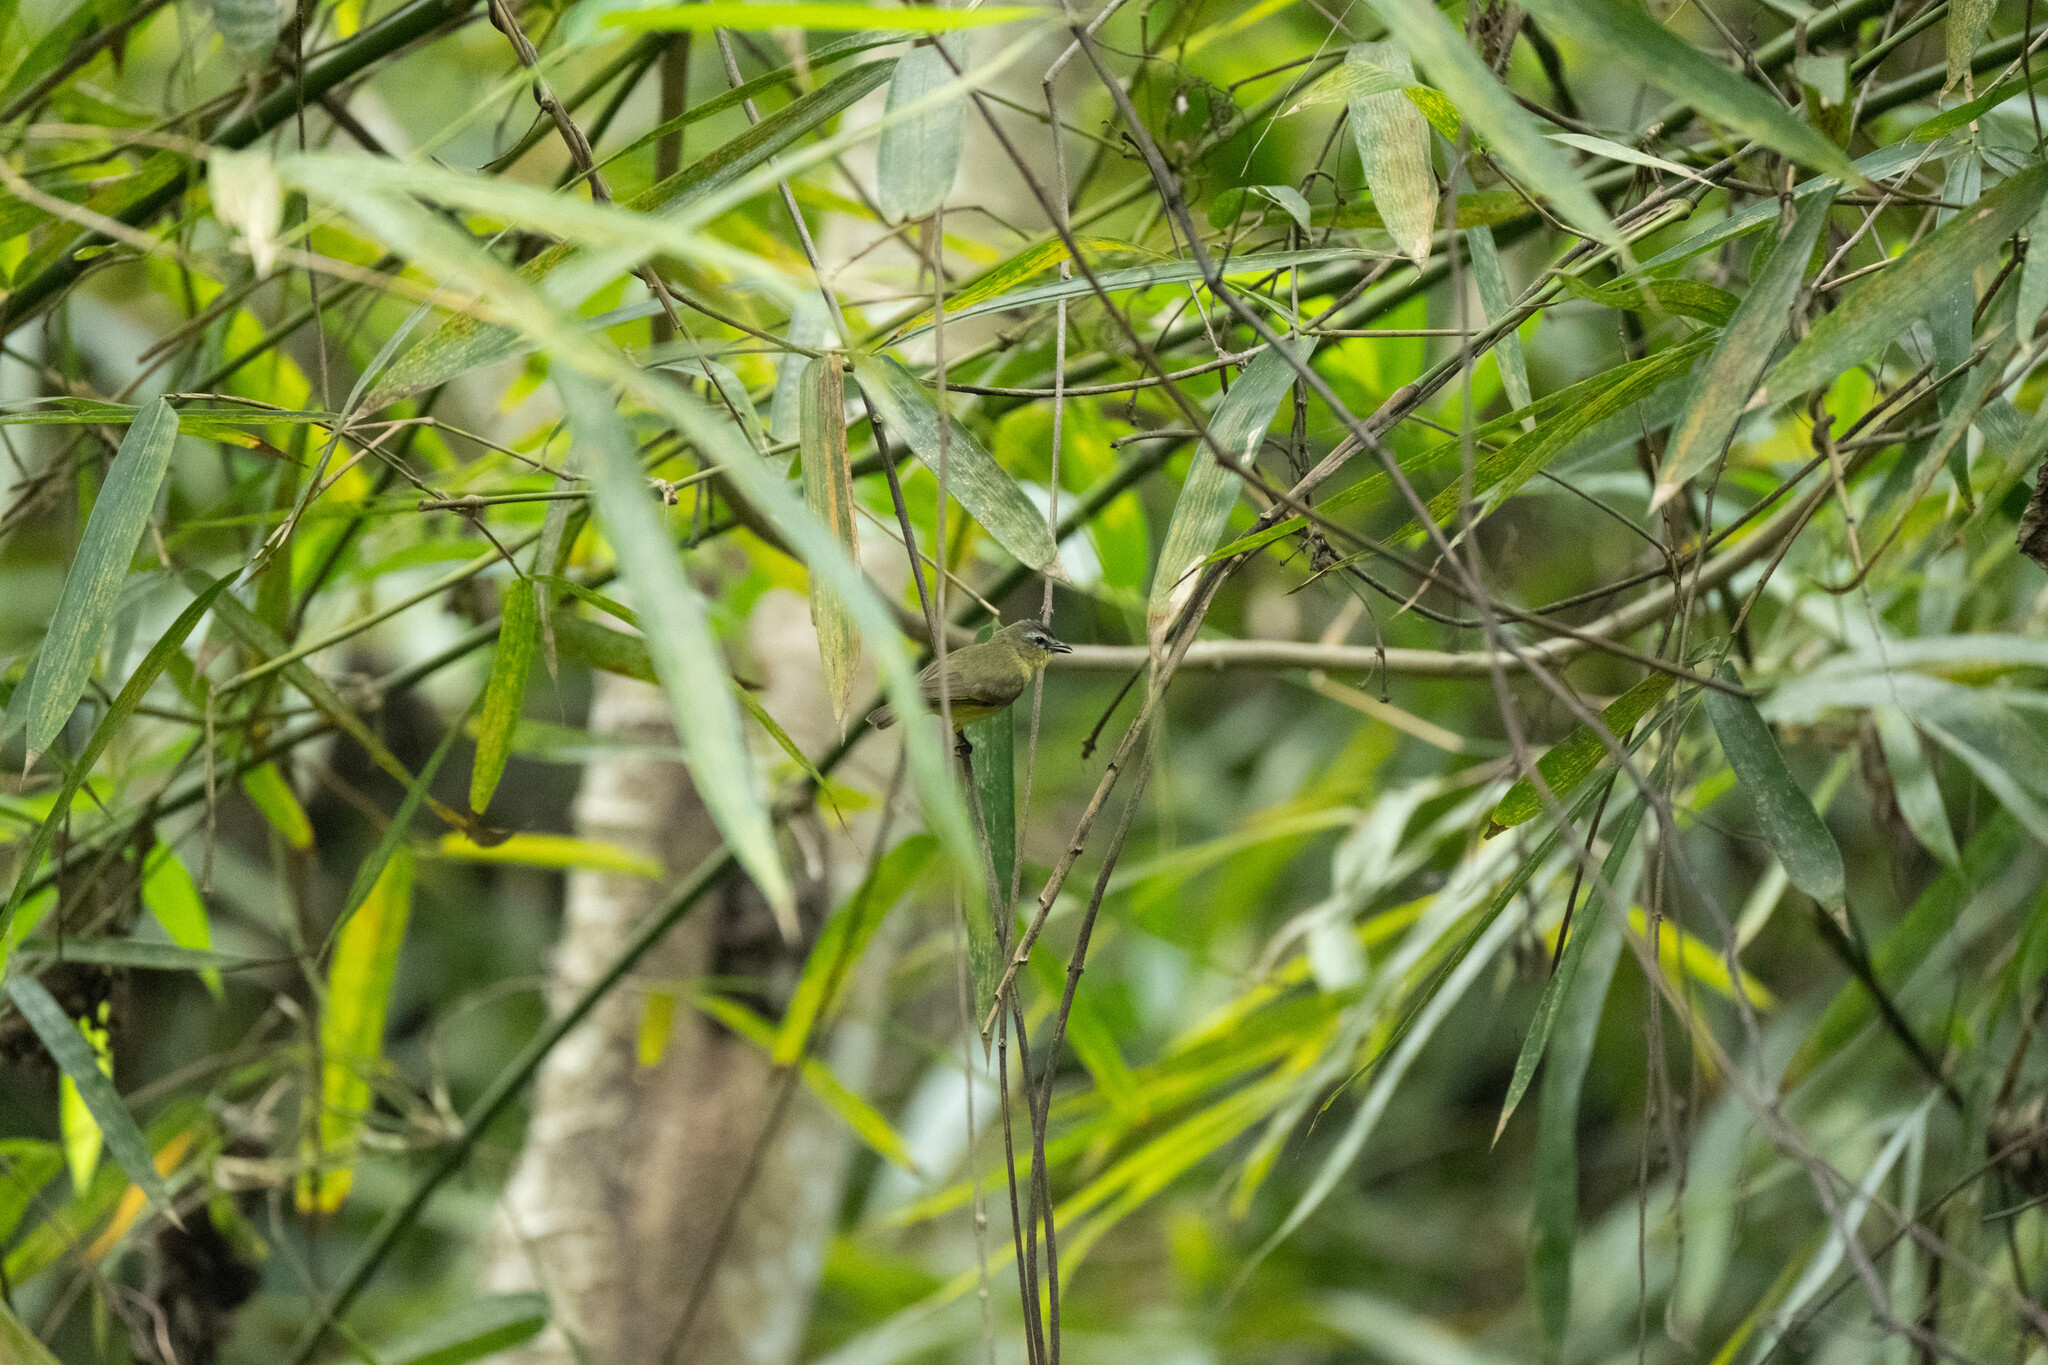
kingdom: Animalia
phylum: Chordata
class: Aves
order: Passeriformes
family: Tyrannidae
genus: Ornithion
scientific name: Ornithion brunneicapillus
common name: Brown-capped tyrannulet
